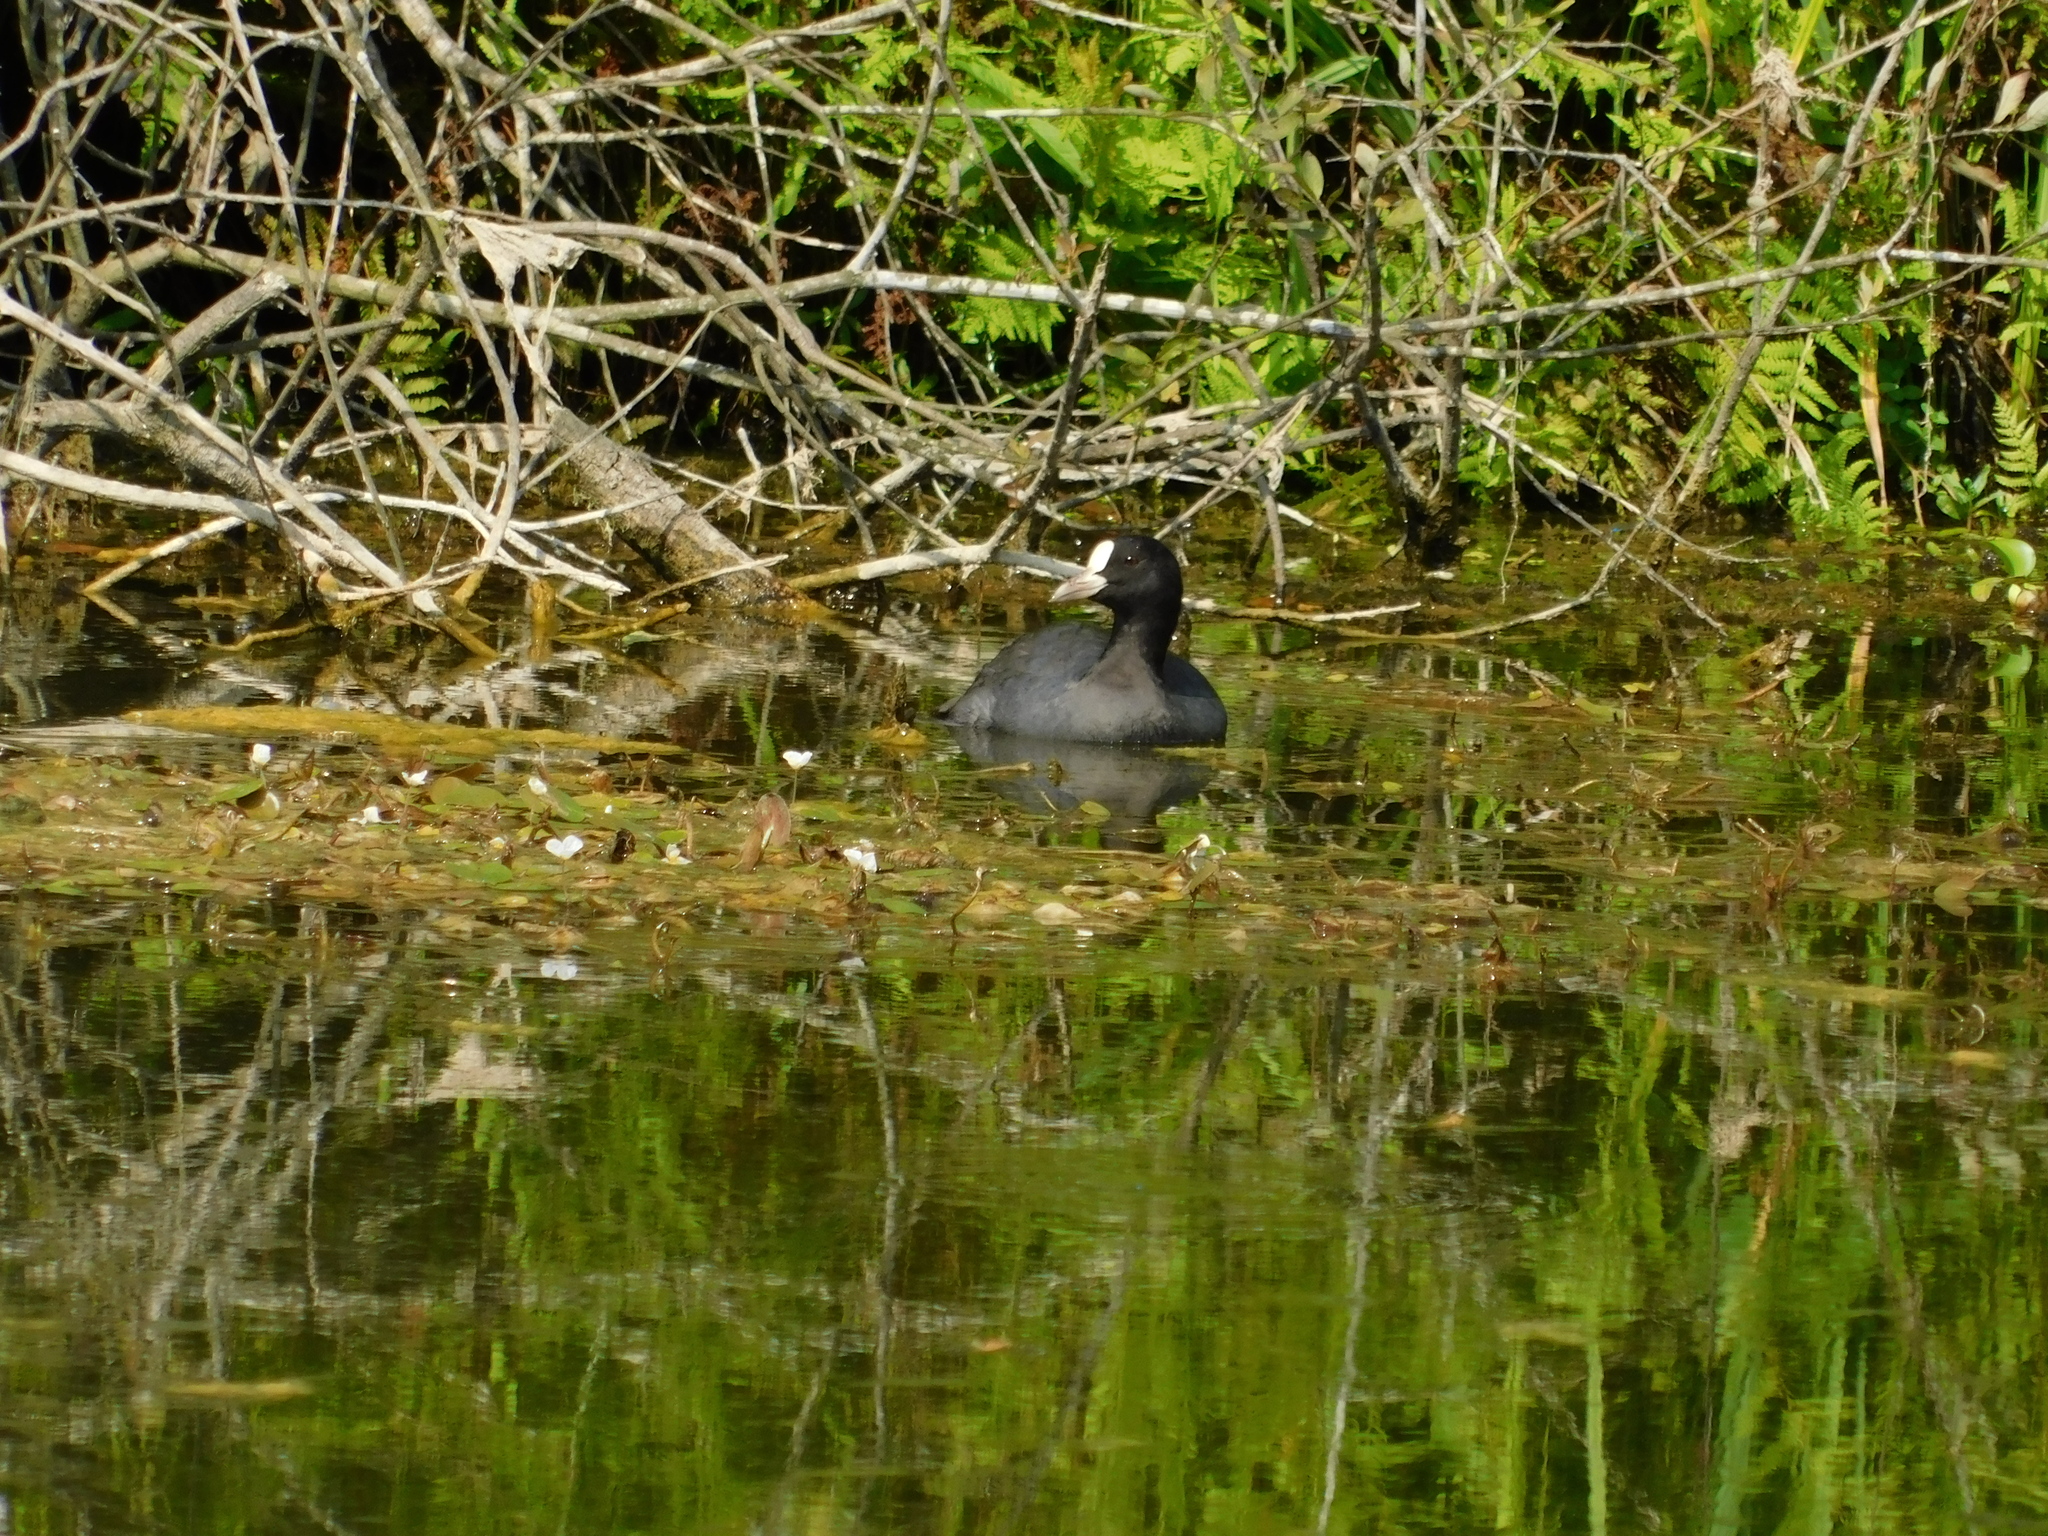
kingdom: Animalia
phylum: Chordata
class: Aves
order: Gruiformes
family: Rallidae
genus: Fulica
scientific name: Fulica atra
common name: Eurasian coot
